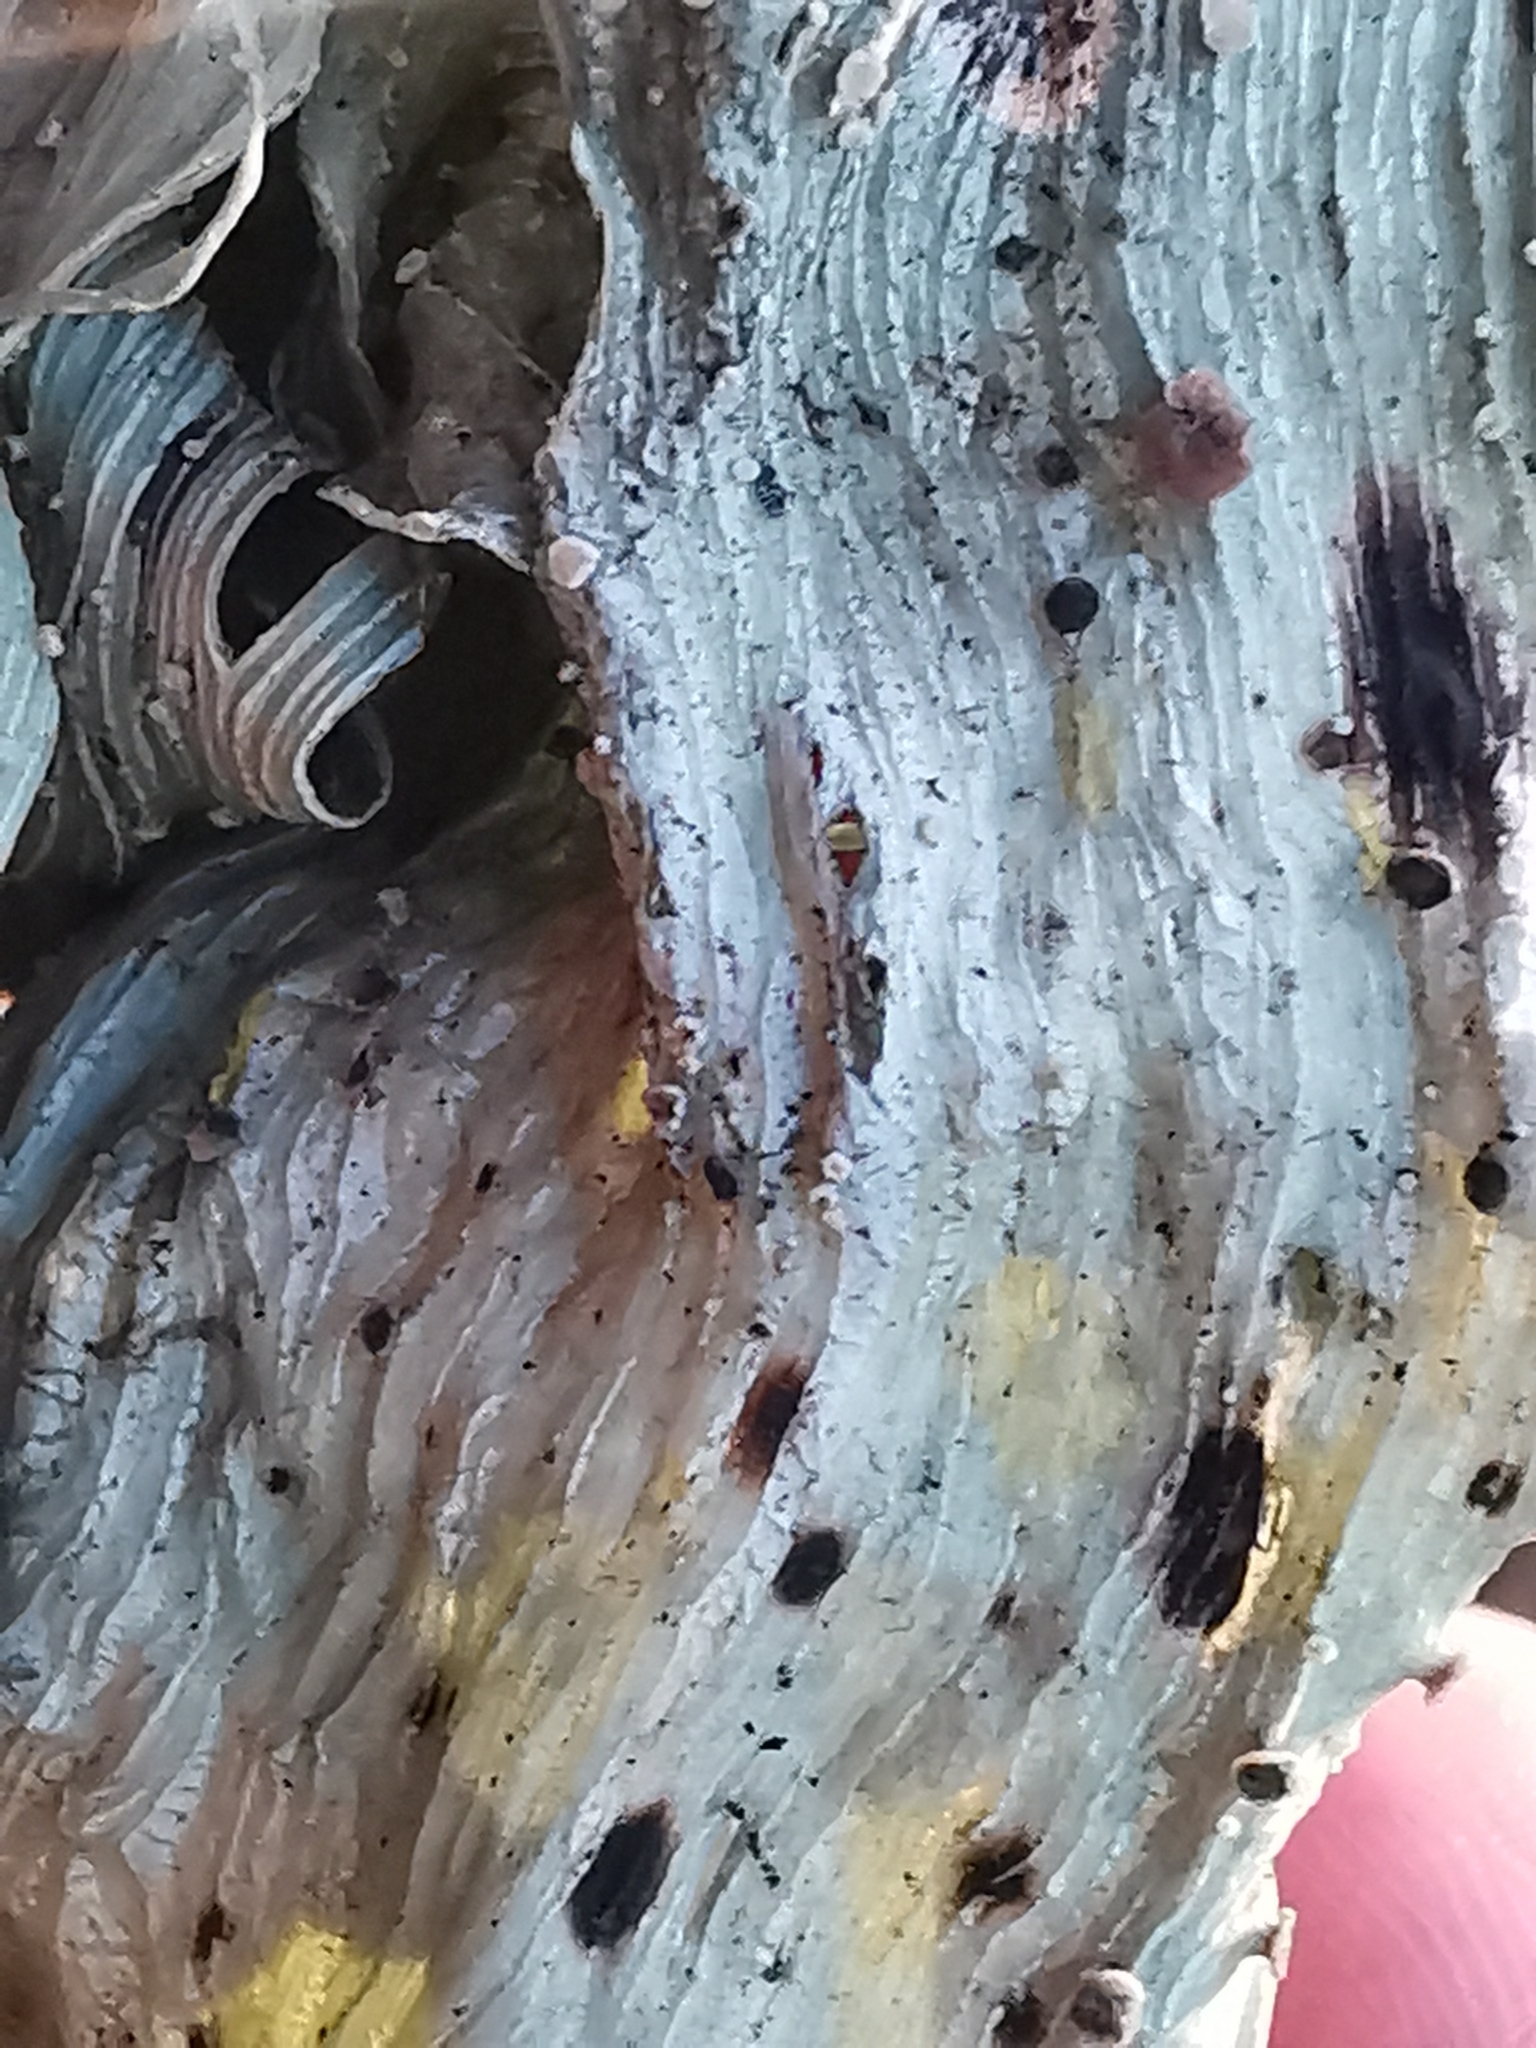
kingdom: Fungi
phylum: Ascomycota
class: Lecanoromycetes
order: Lecanorales
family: Ramalinaceae
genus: Ramalina
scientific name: Ramalina
